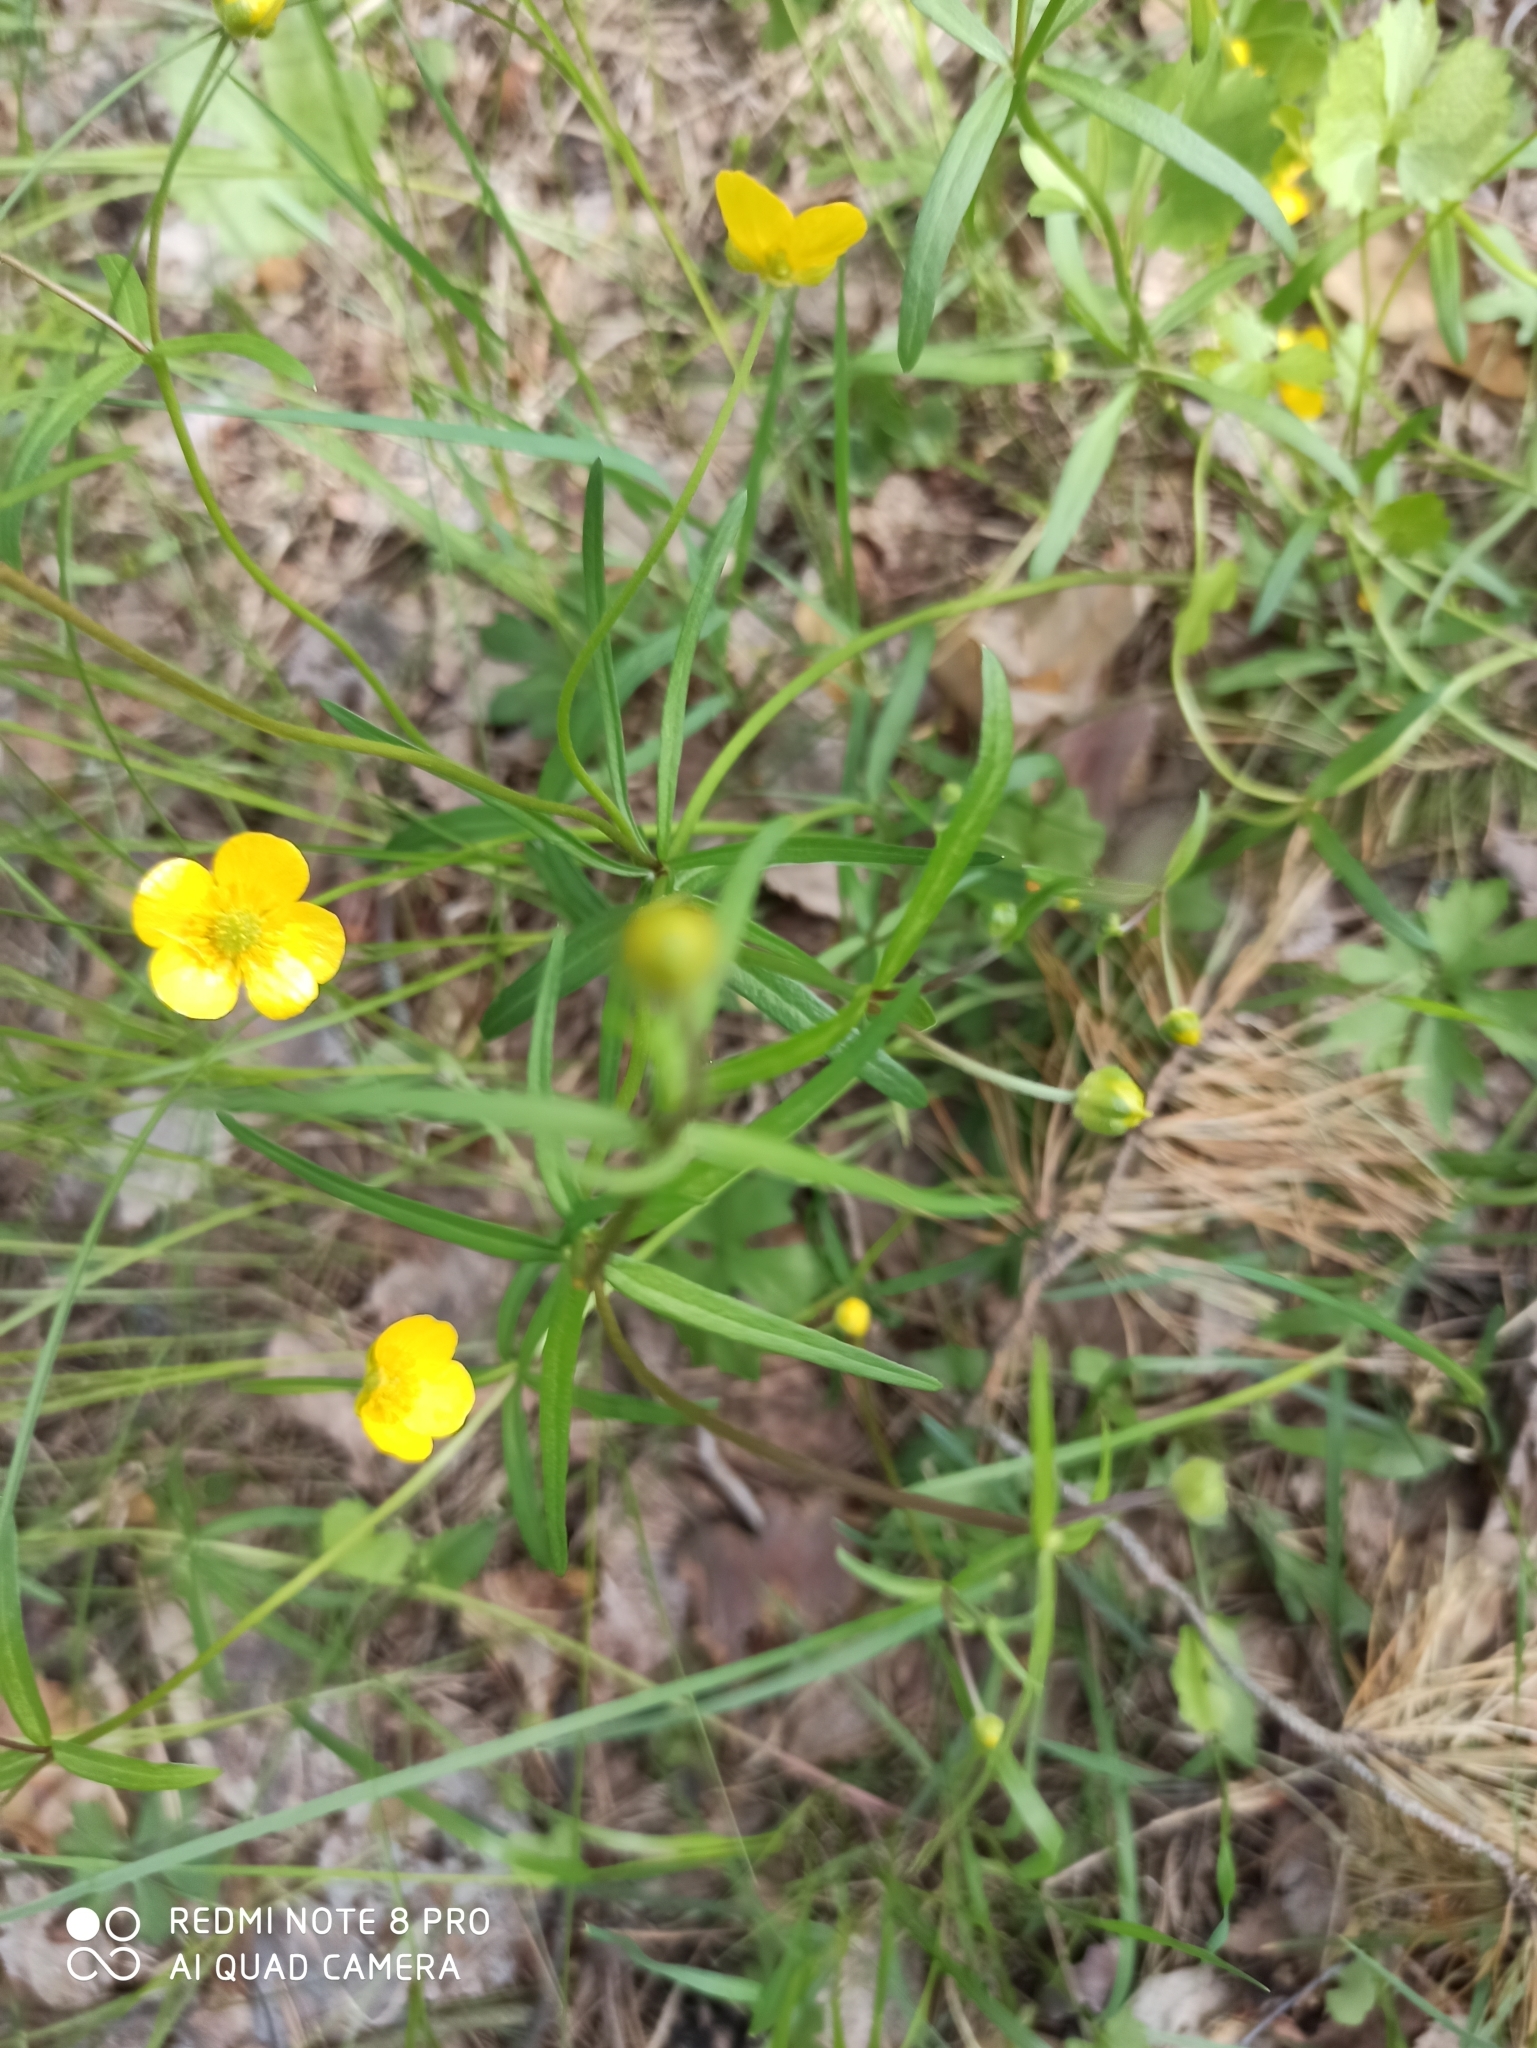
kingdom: Plantae
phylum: Tracheophyta
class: Magnoliopsida
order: Ranunculales
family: Ranunculaceae
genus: Ranunculus
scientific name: Ranunculus auricomus
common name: Goldilocks buttercup
